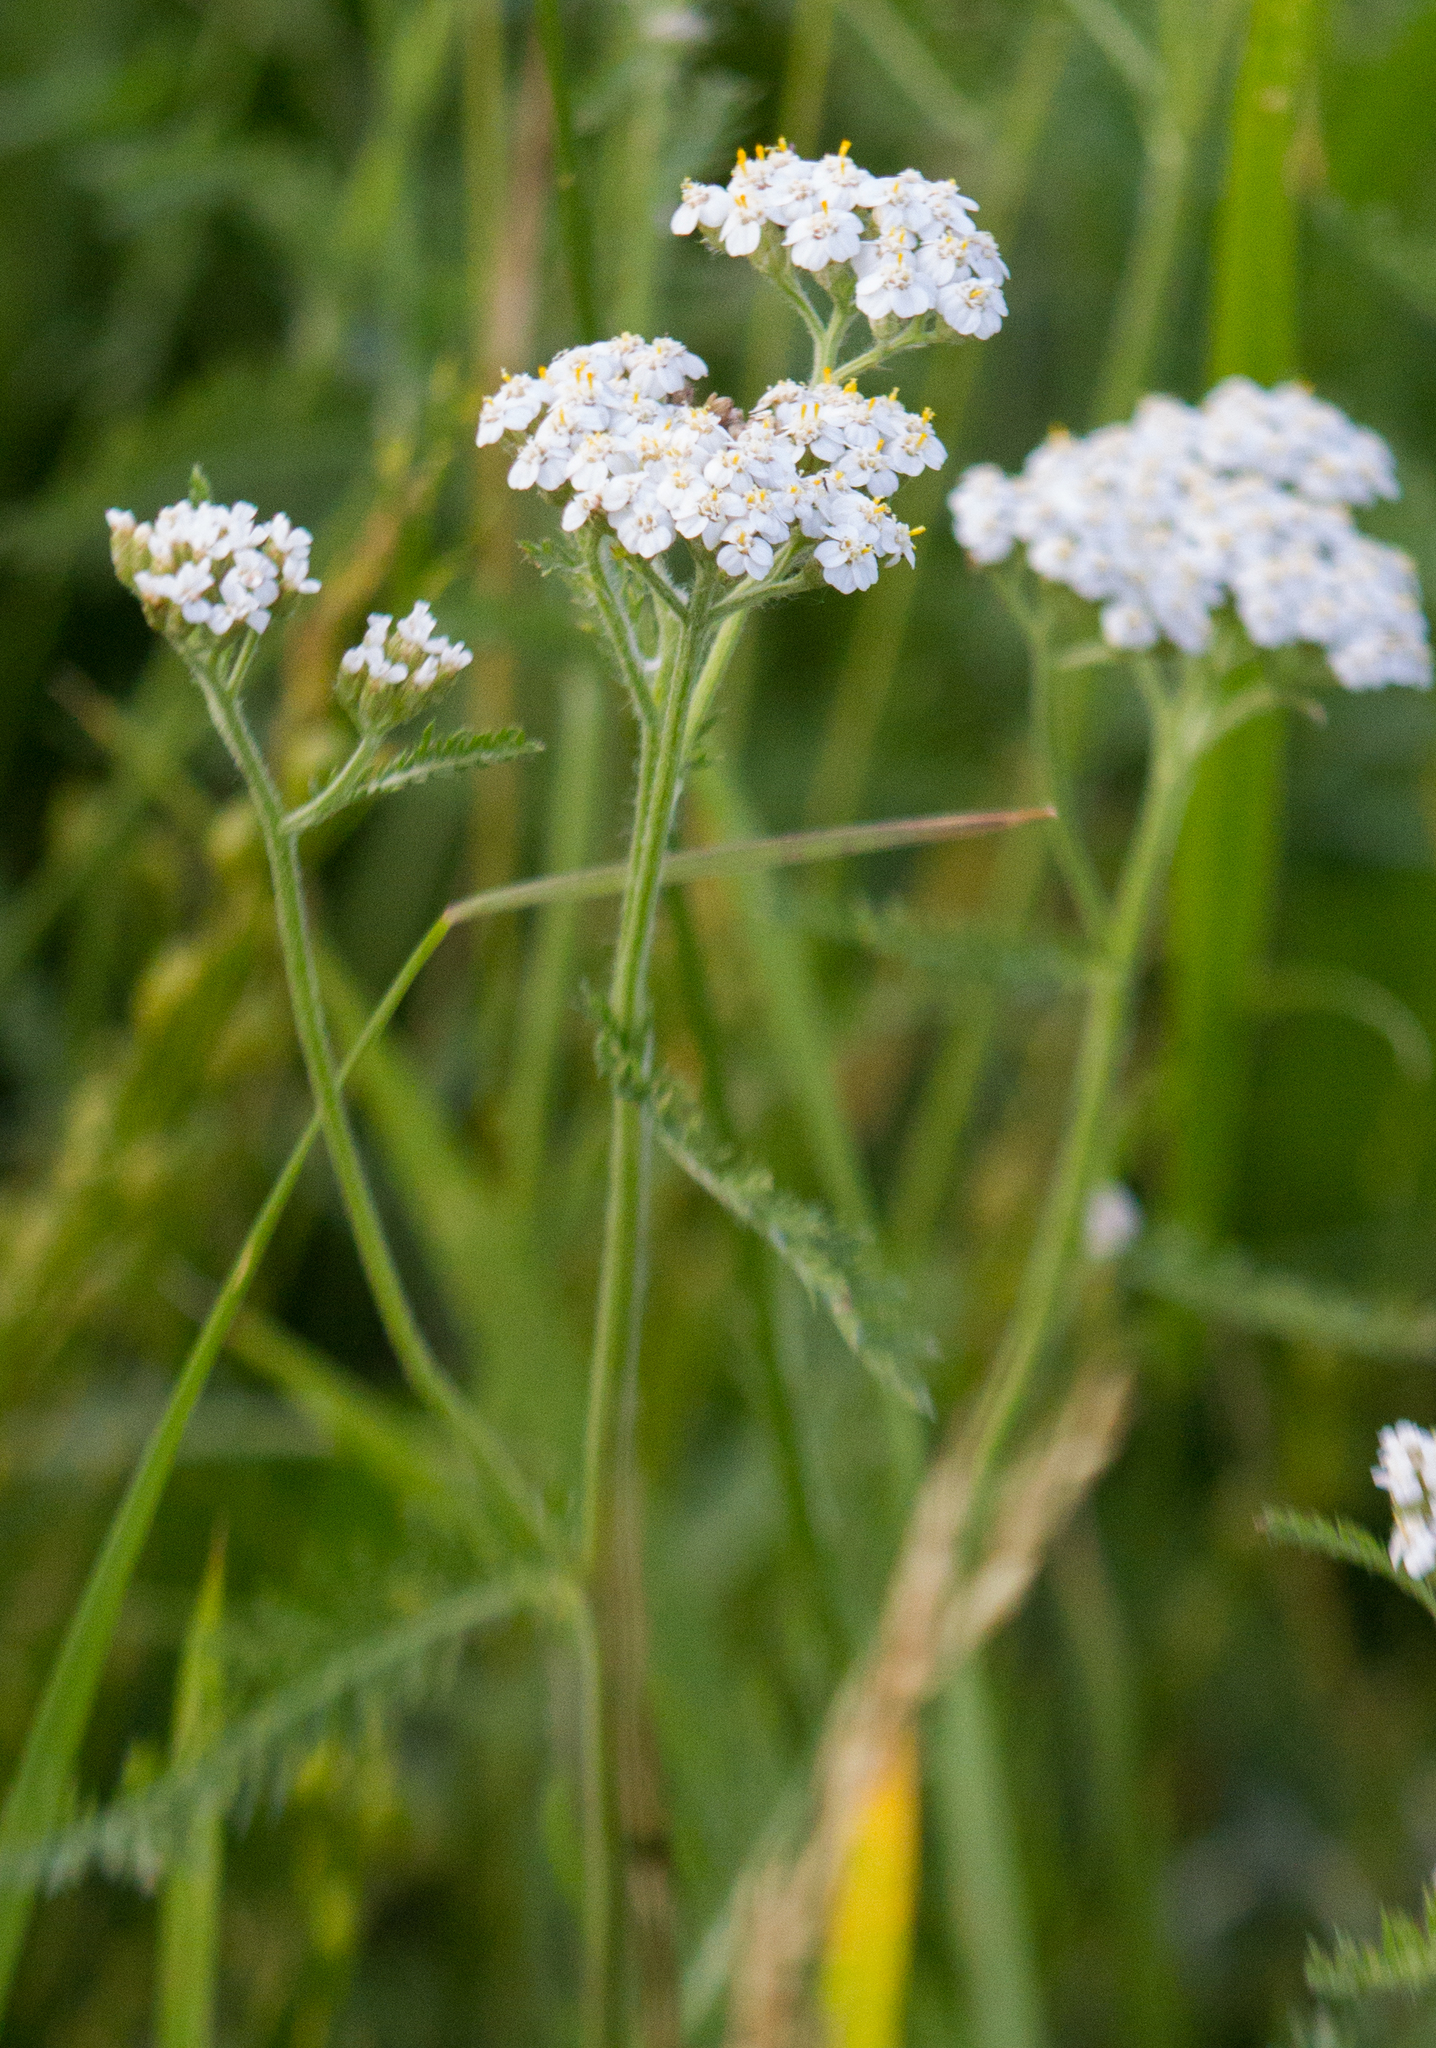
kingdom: Plantae
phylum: Tracheophyta
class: Magnoliopsida
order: Asterales
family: Asteraceae
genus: Achillea
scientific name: Achillea millefolium
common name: Yarrow
